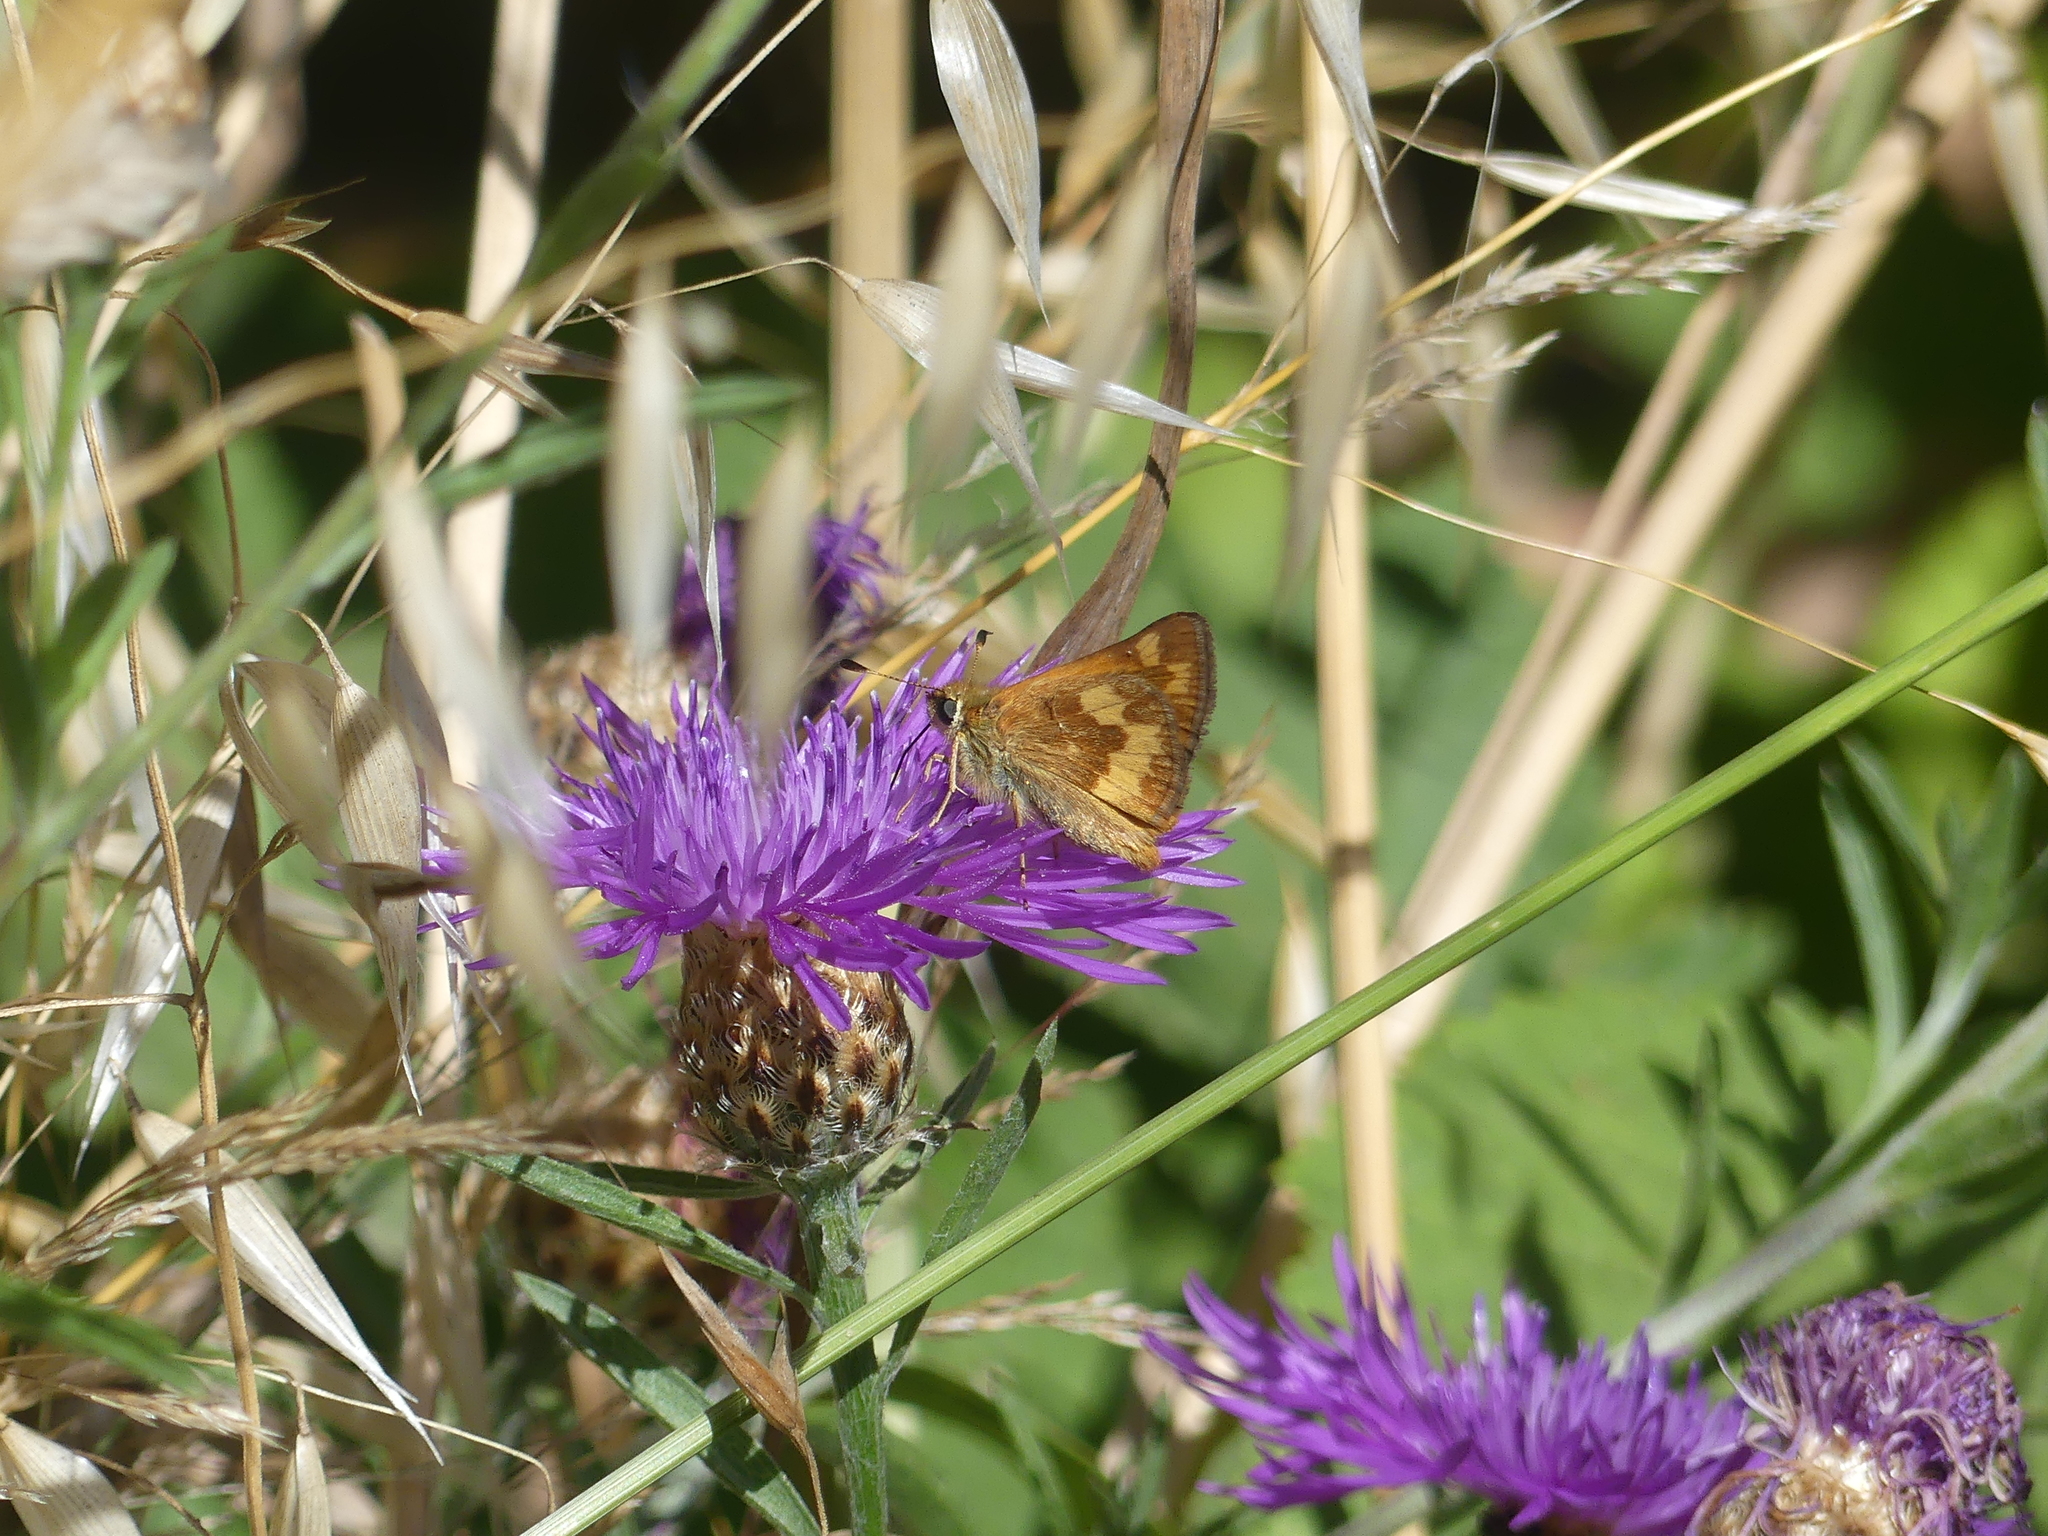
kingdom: Animalia
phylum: Arthropoda
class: Insecta
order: Lepidoptera
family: Hesperiidae
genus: Ochlodes
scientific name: Ochlodes sylvanoides
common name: Woodland skipper
